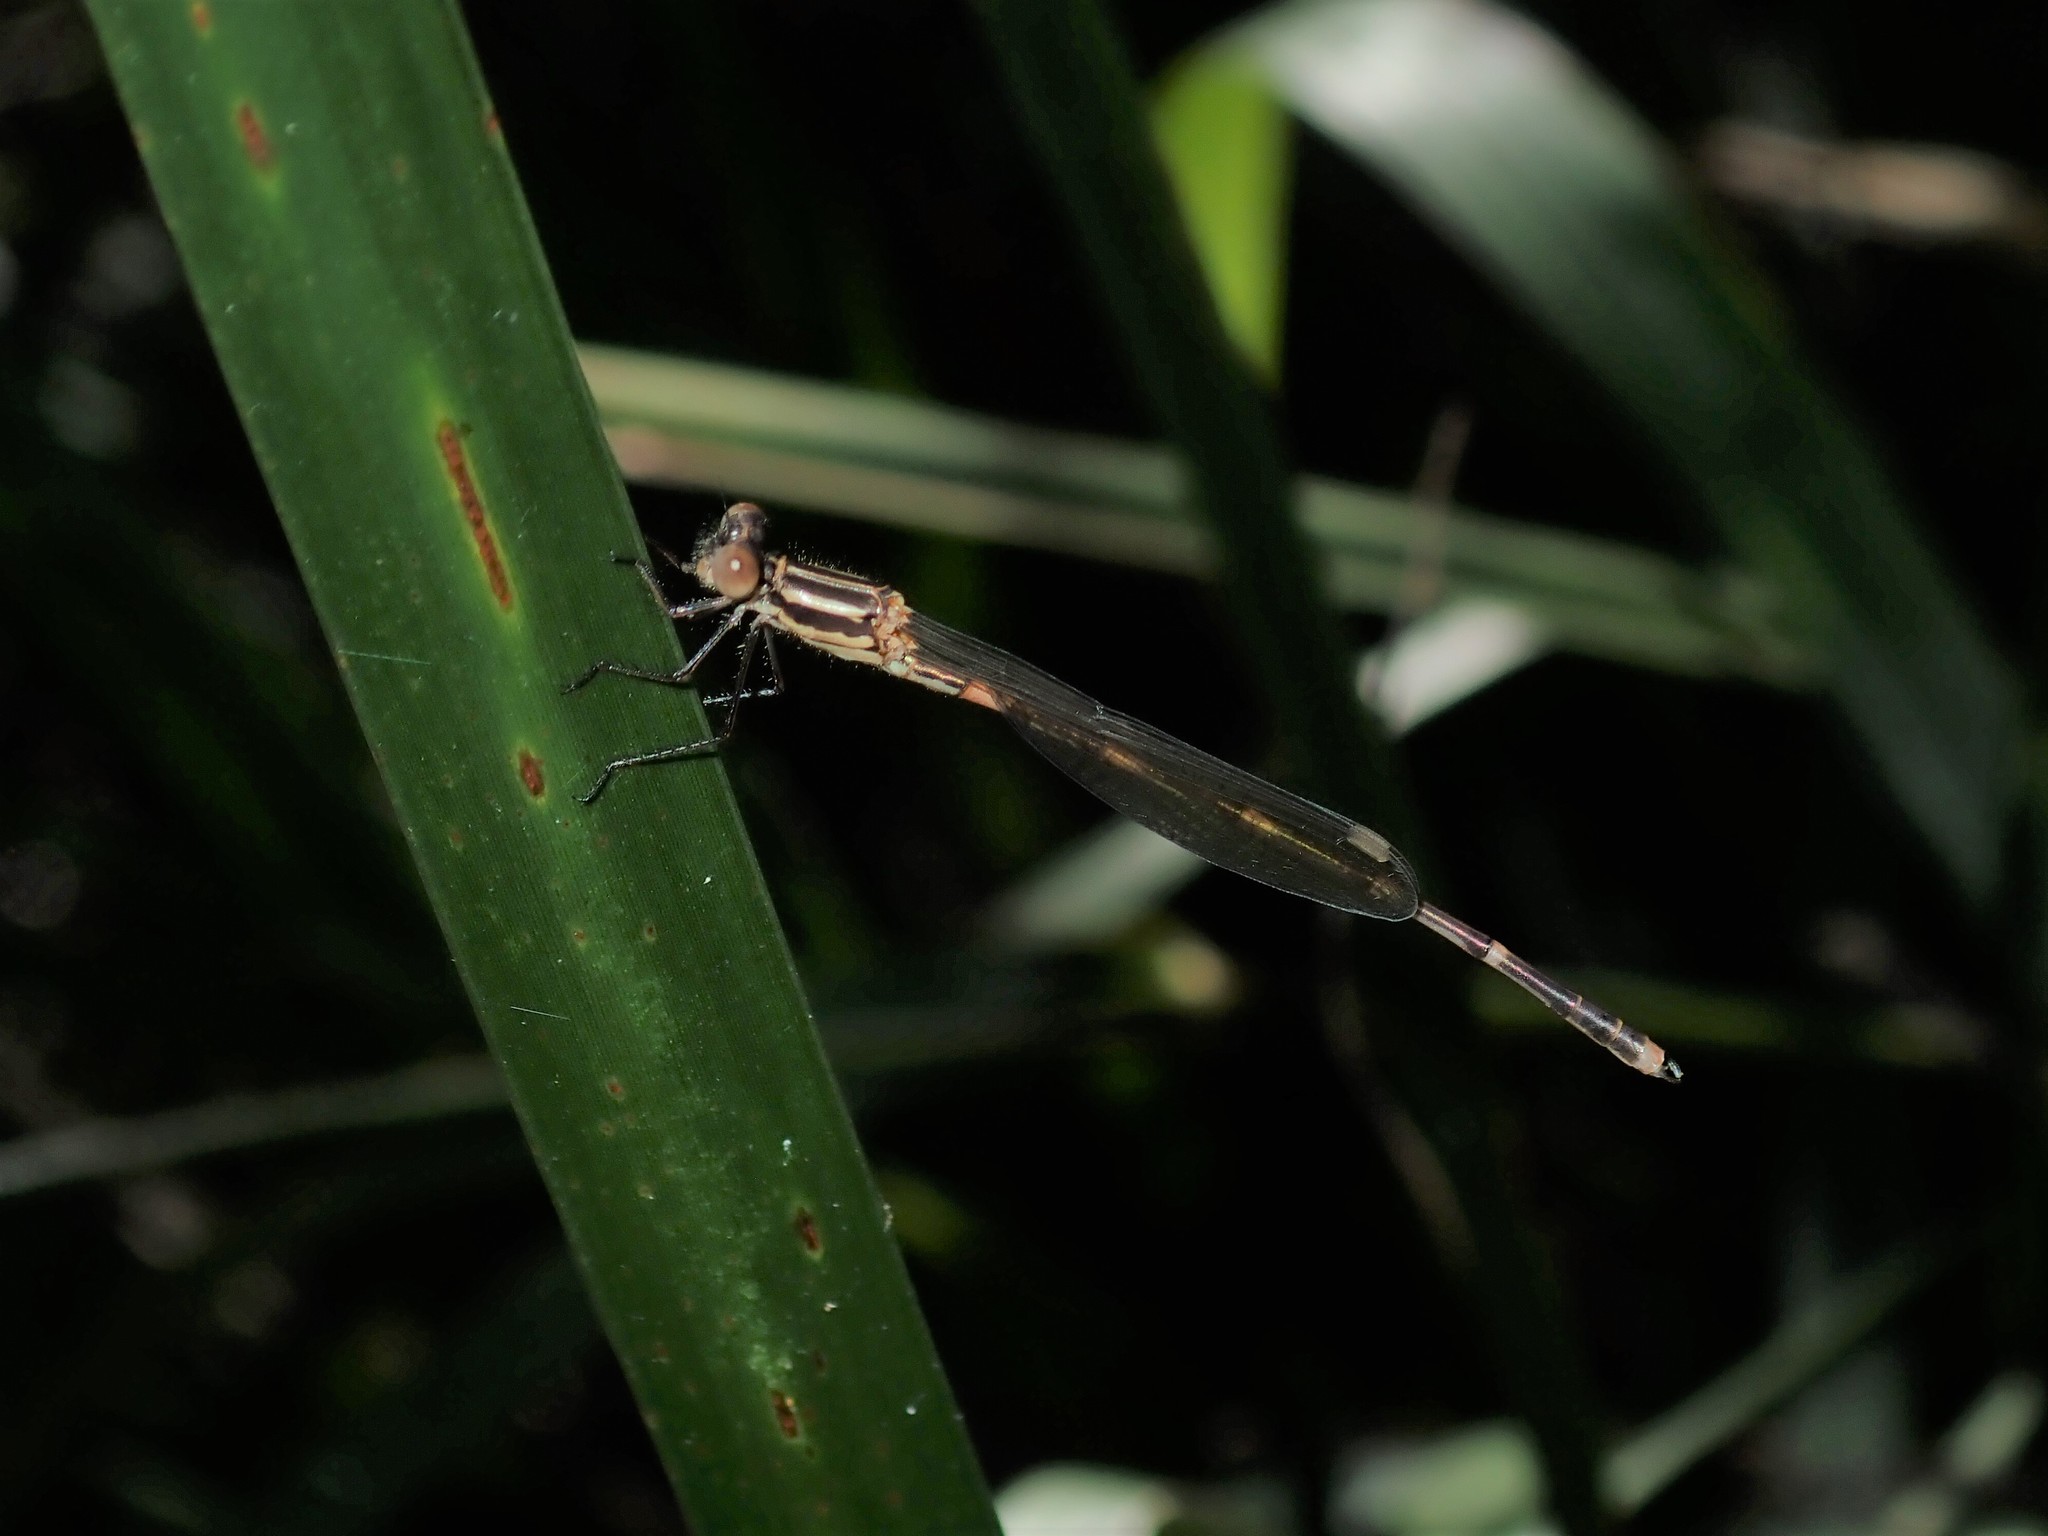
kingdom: Animalia
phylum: Arthropoda
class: Insecta
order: Odonata
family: Lestidae
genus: Austrolestes
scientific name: Austrolestes leda
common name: Wandering ringtail
